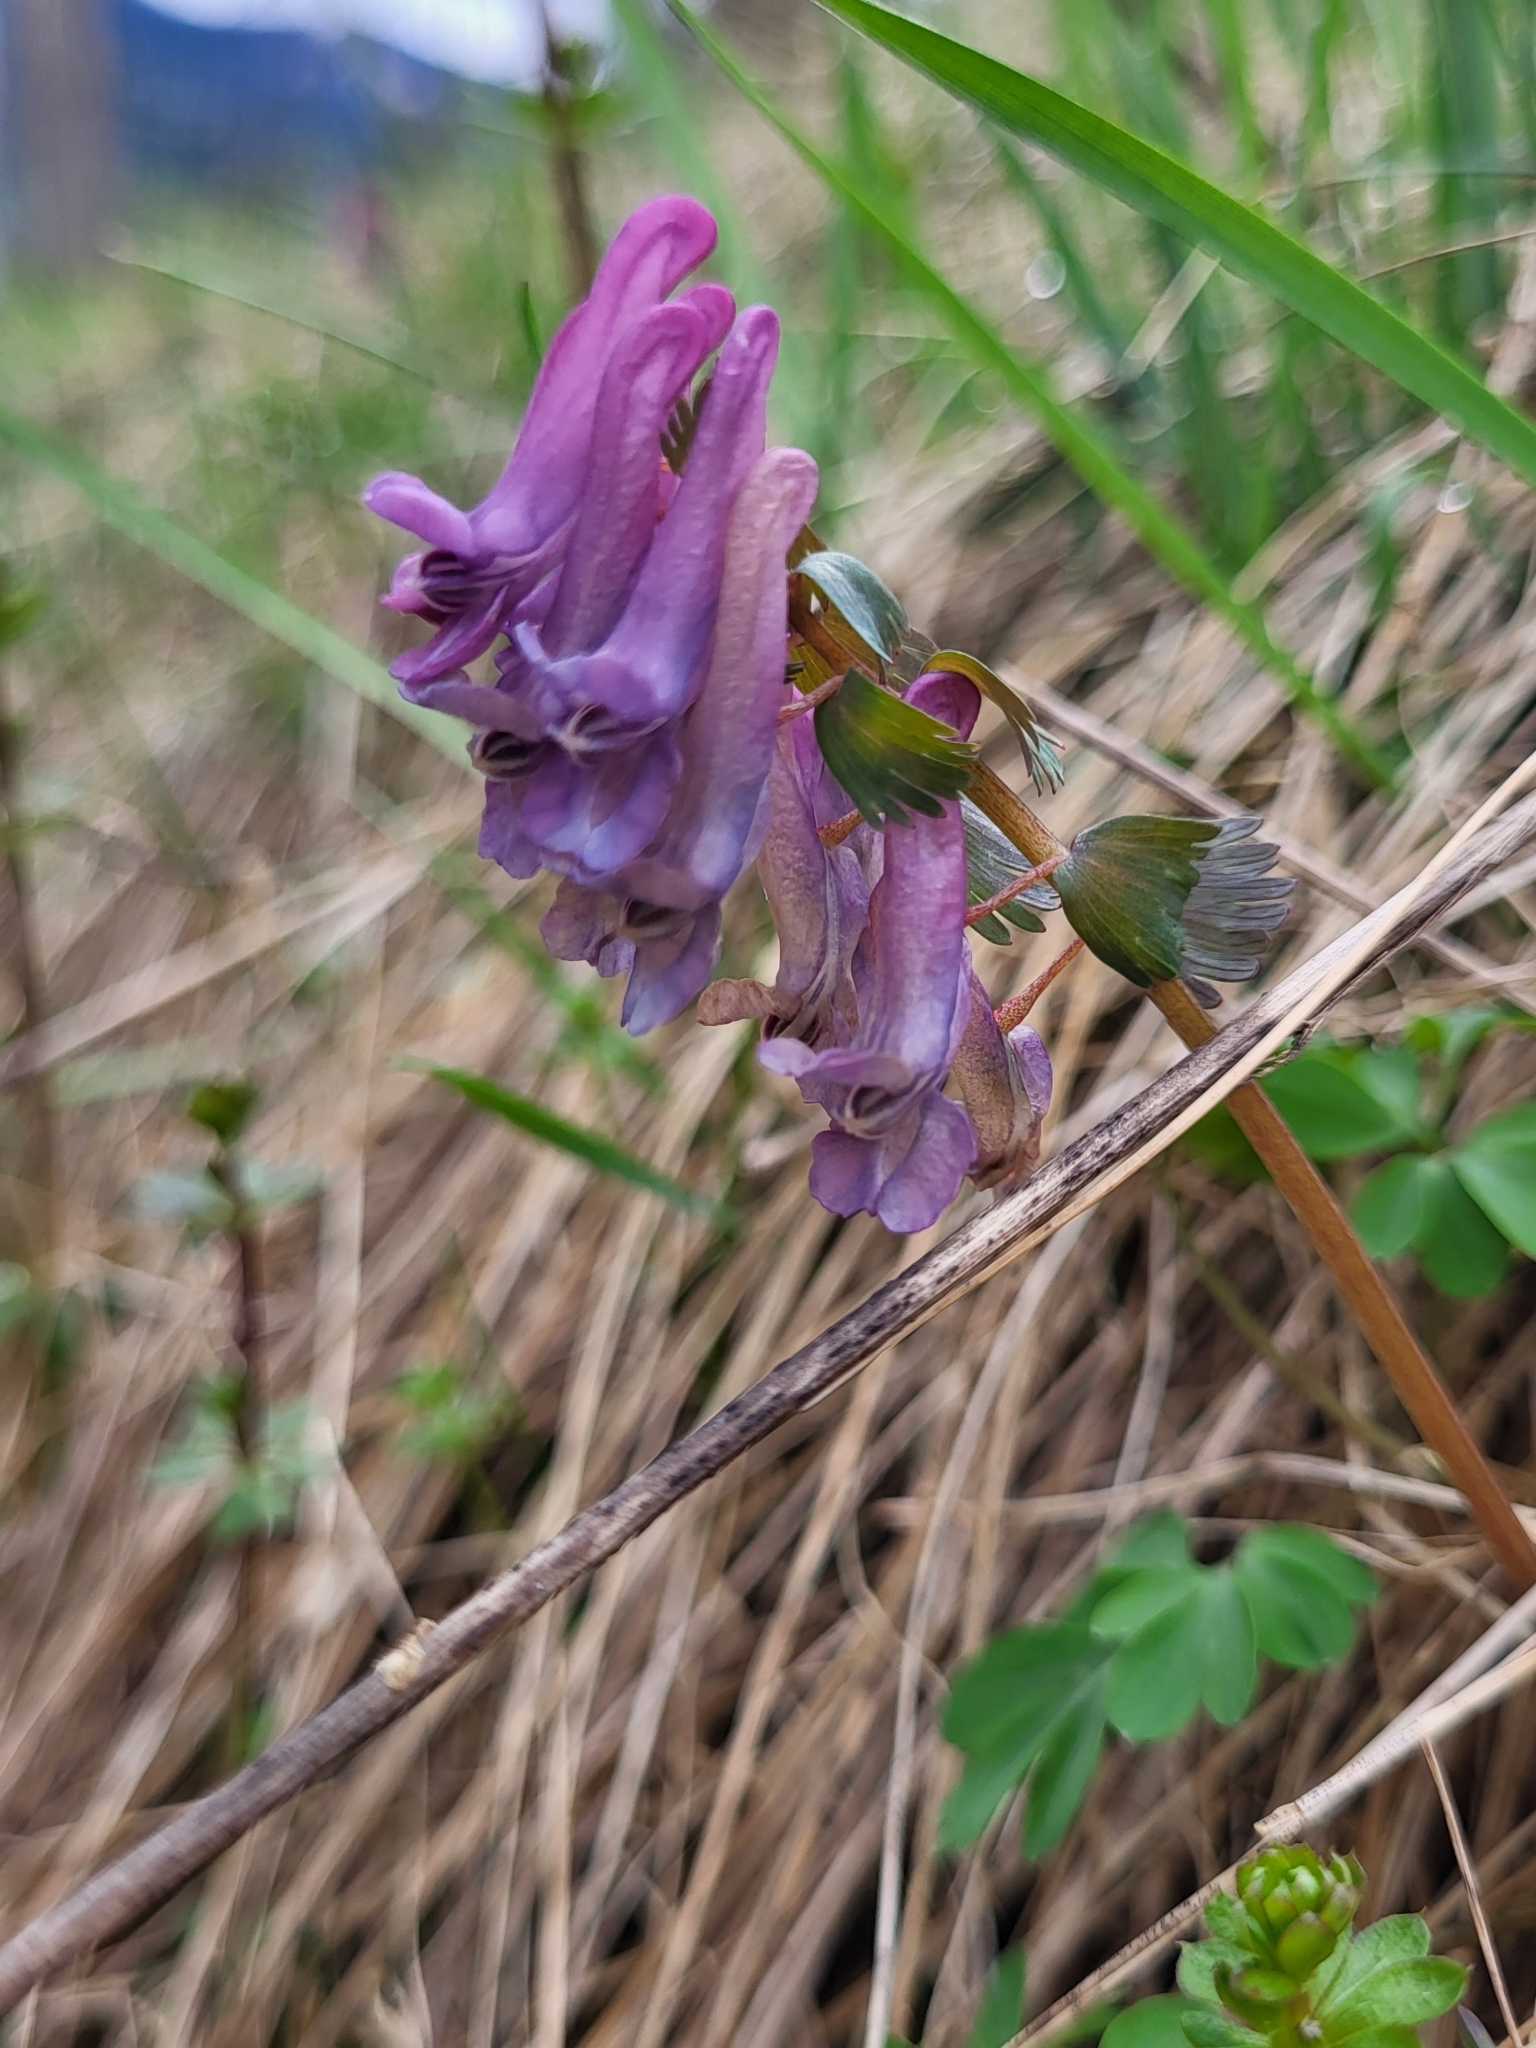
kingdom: Plantae
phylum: Tracheophyta
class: Magnoliopsida
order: Ranunculales
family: Papaveraceae
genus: Corydalis
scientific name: Corydalis solida
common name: Bird-in-a-bush
